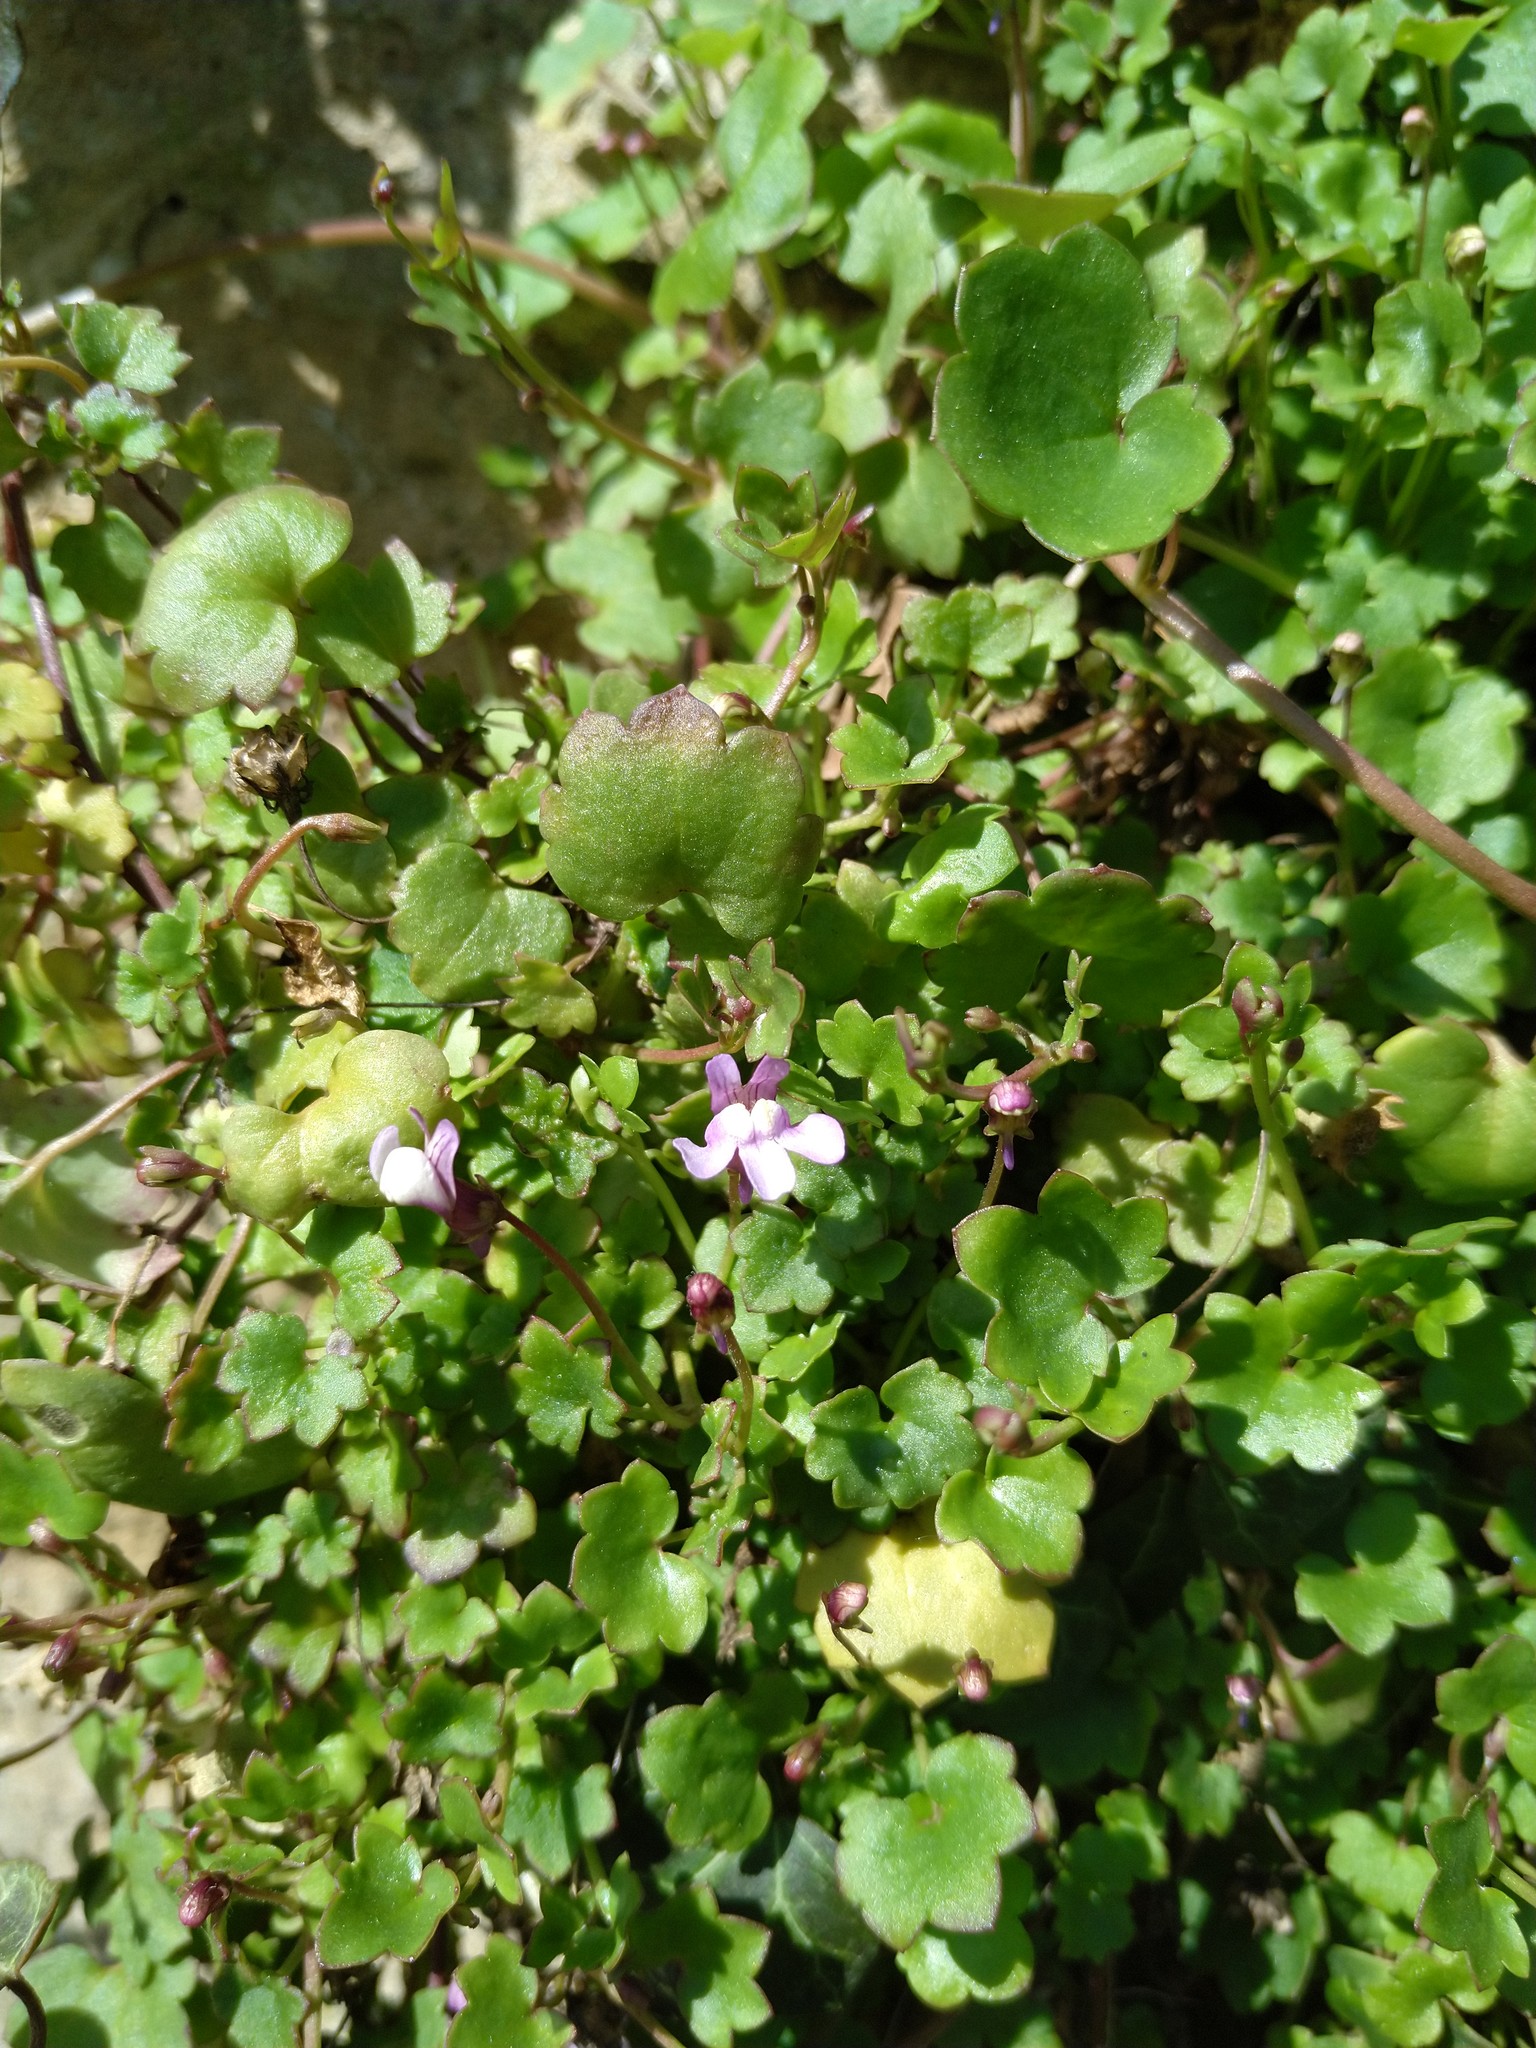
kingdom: Plantae
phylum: Tracheophyta
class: Magnoliopsida
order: Lamiales
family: Plantaginaceae
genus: Cymbalaria
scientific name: Cymbalaria muralis
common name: Ivy-leaved toadflax
